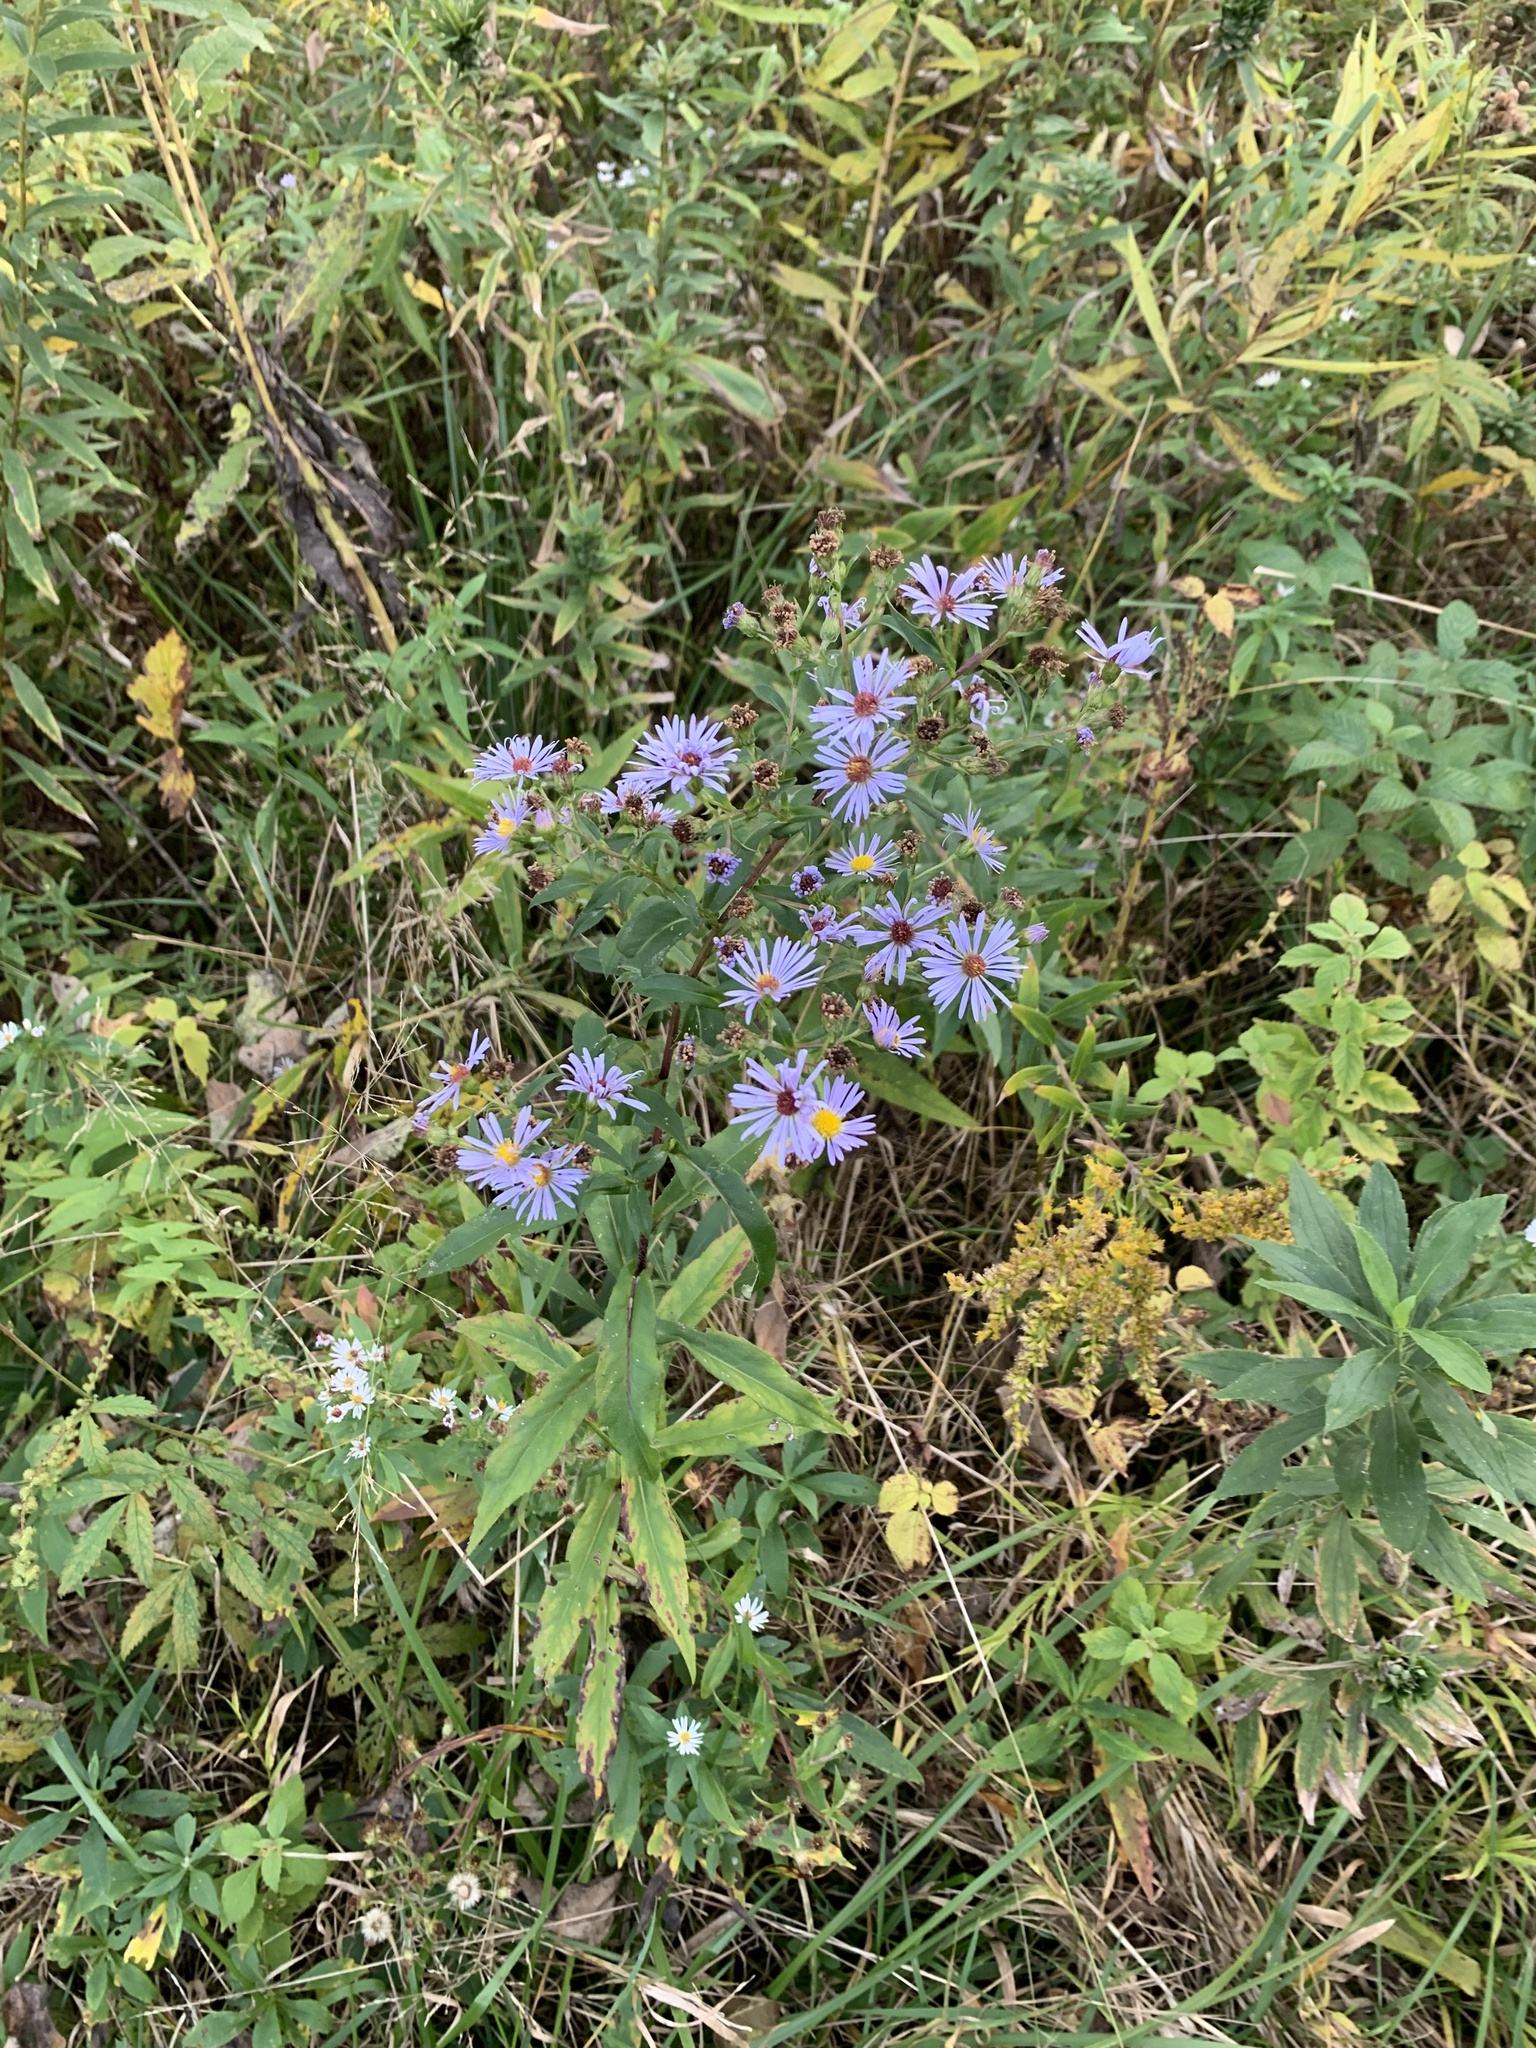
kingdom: Plantae
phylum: Tracheophyta
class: Magnoliopsida
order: Asterales
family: Asteraceae
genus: Symphyotrichum
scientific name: Symphyotrichum puniceum
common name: Bog aster
